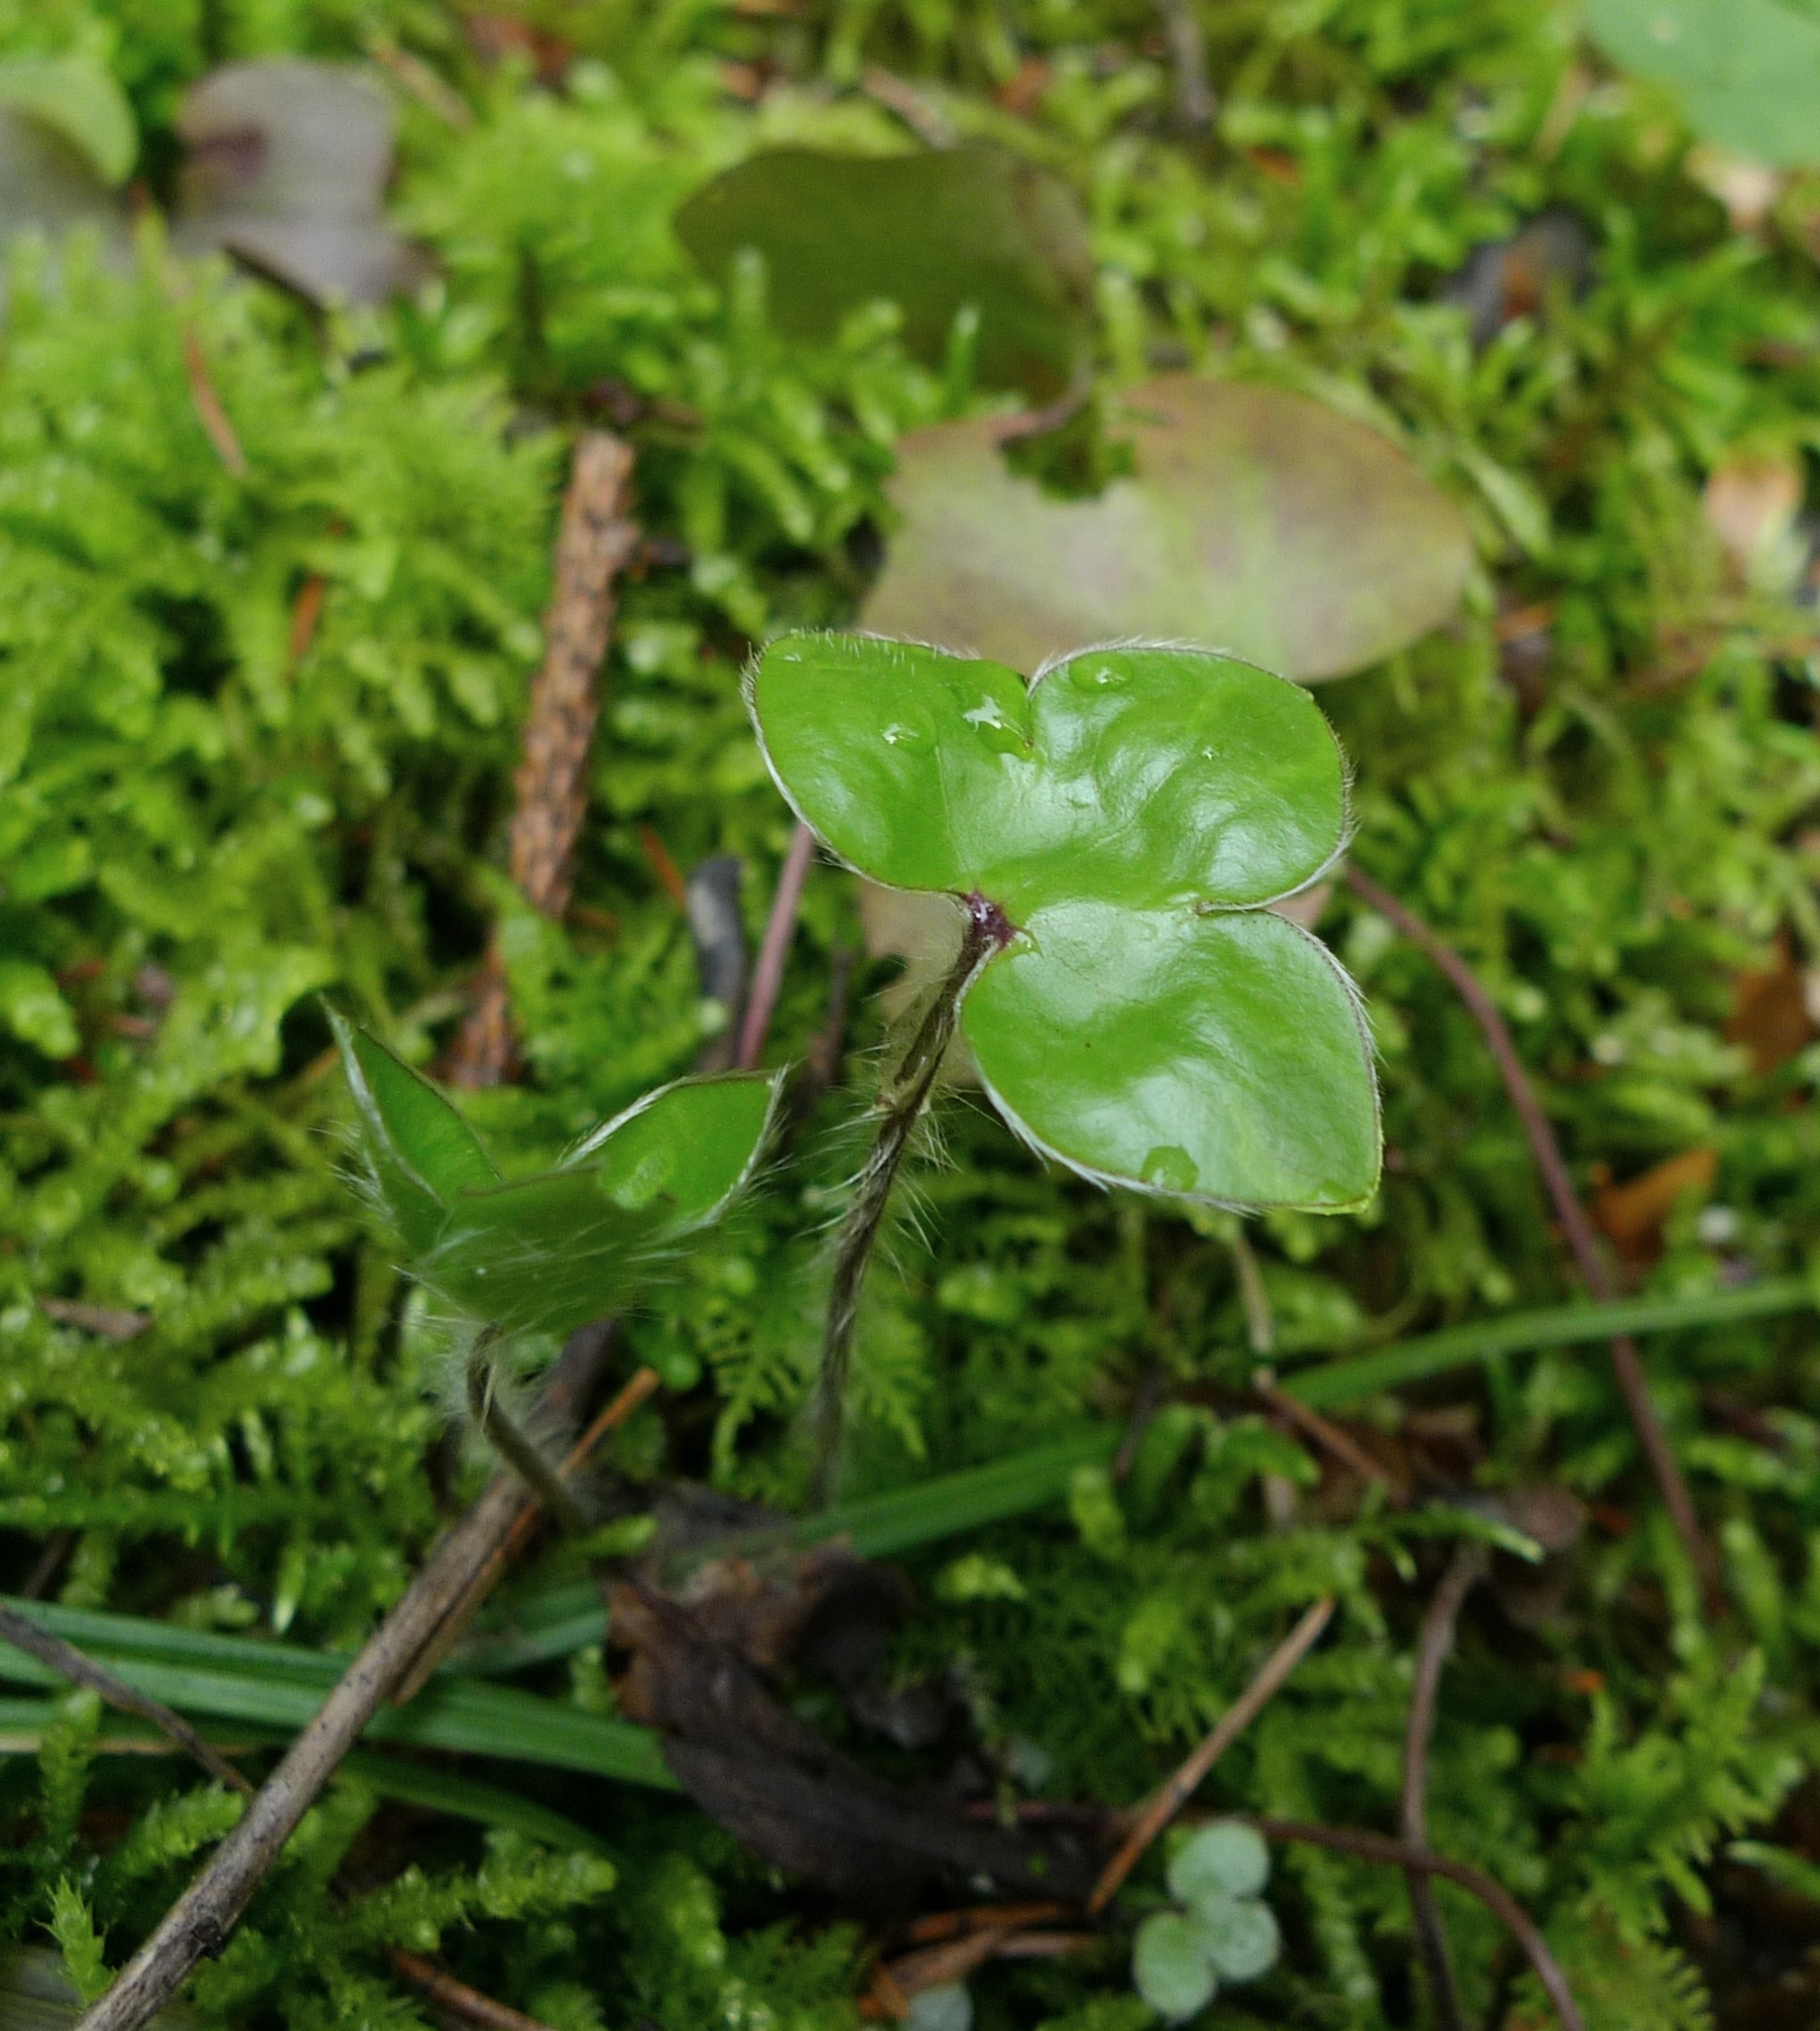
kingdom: Plantae
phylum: Tracheophyta
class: Magnoliopsida
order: Ranunculales
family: Ranunculaceae
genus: Hepatica
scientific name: Hepatica nobilis
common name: Liverleaf
